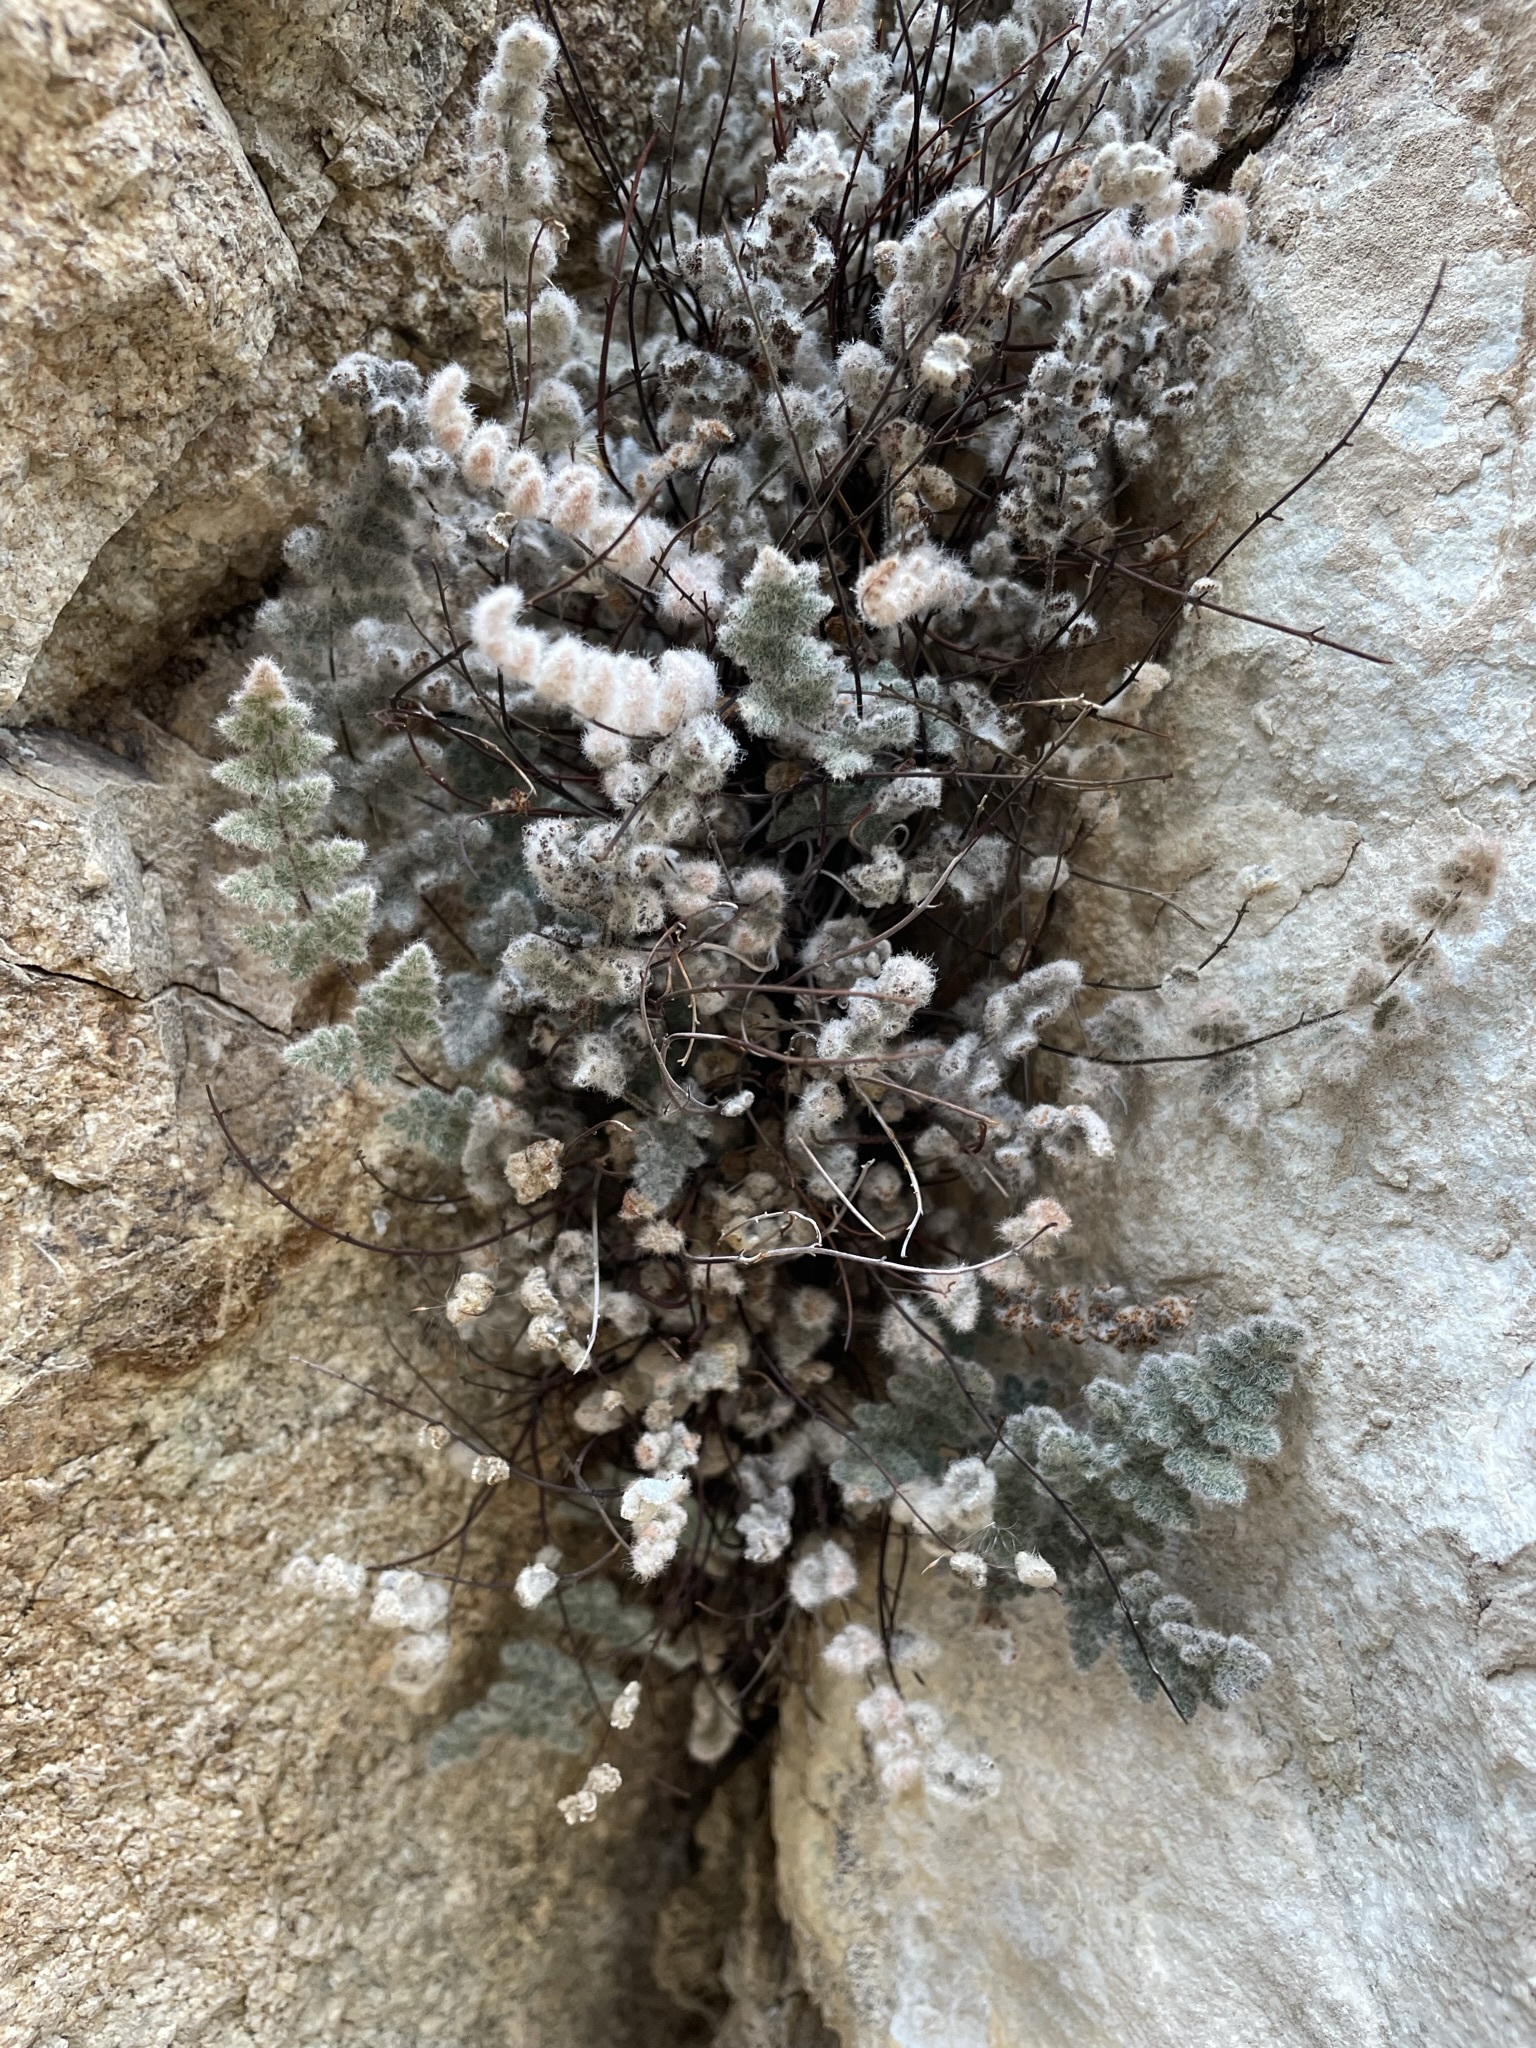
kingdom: Plantae
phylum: Tracheophyta
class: Polypodiopsida
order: Polypodiales
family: Pteridaceae
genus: Myriopteris
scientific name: Myriopteris parryi
